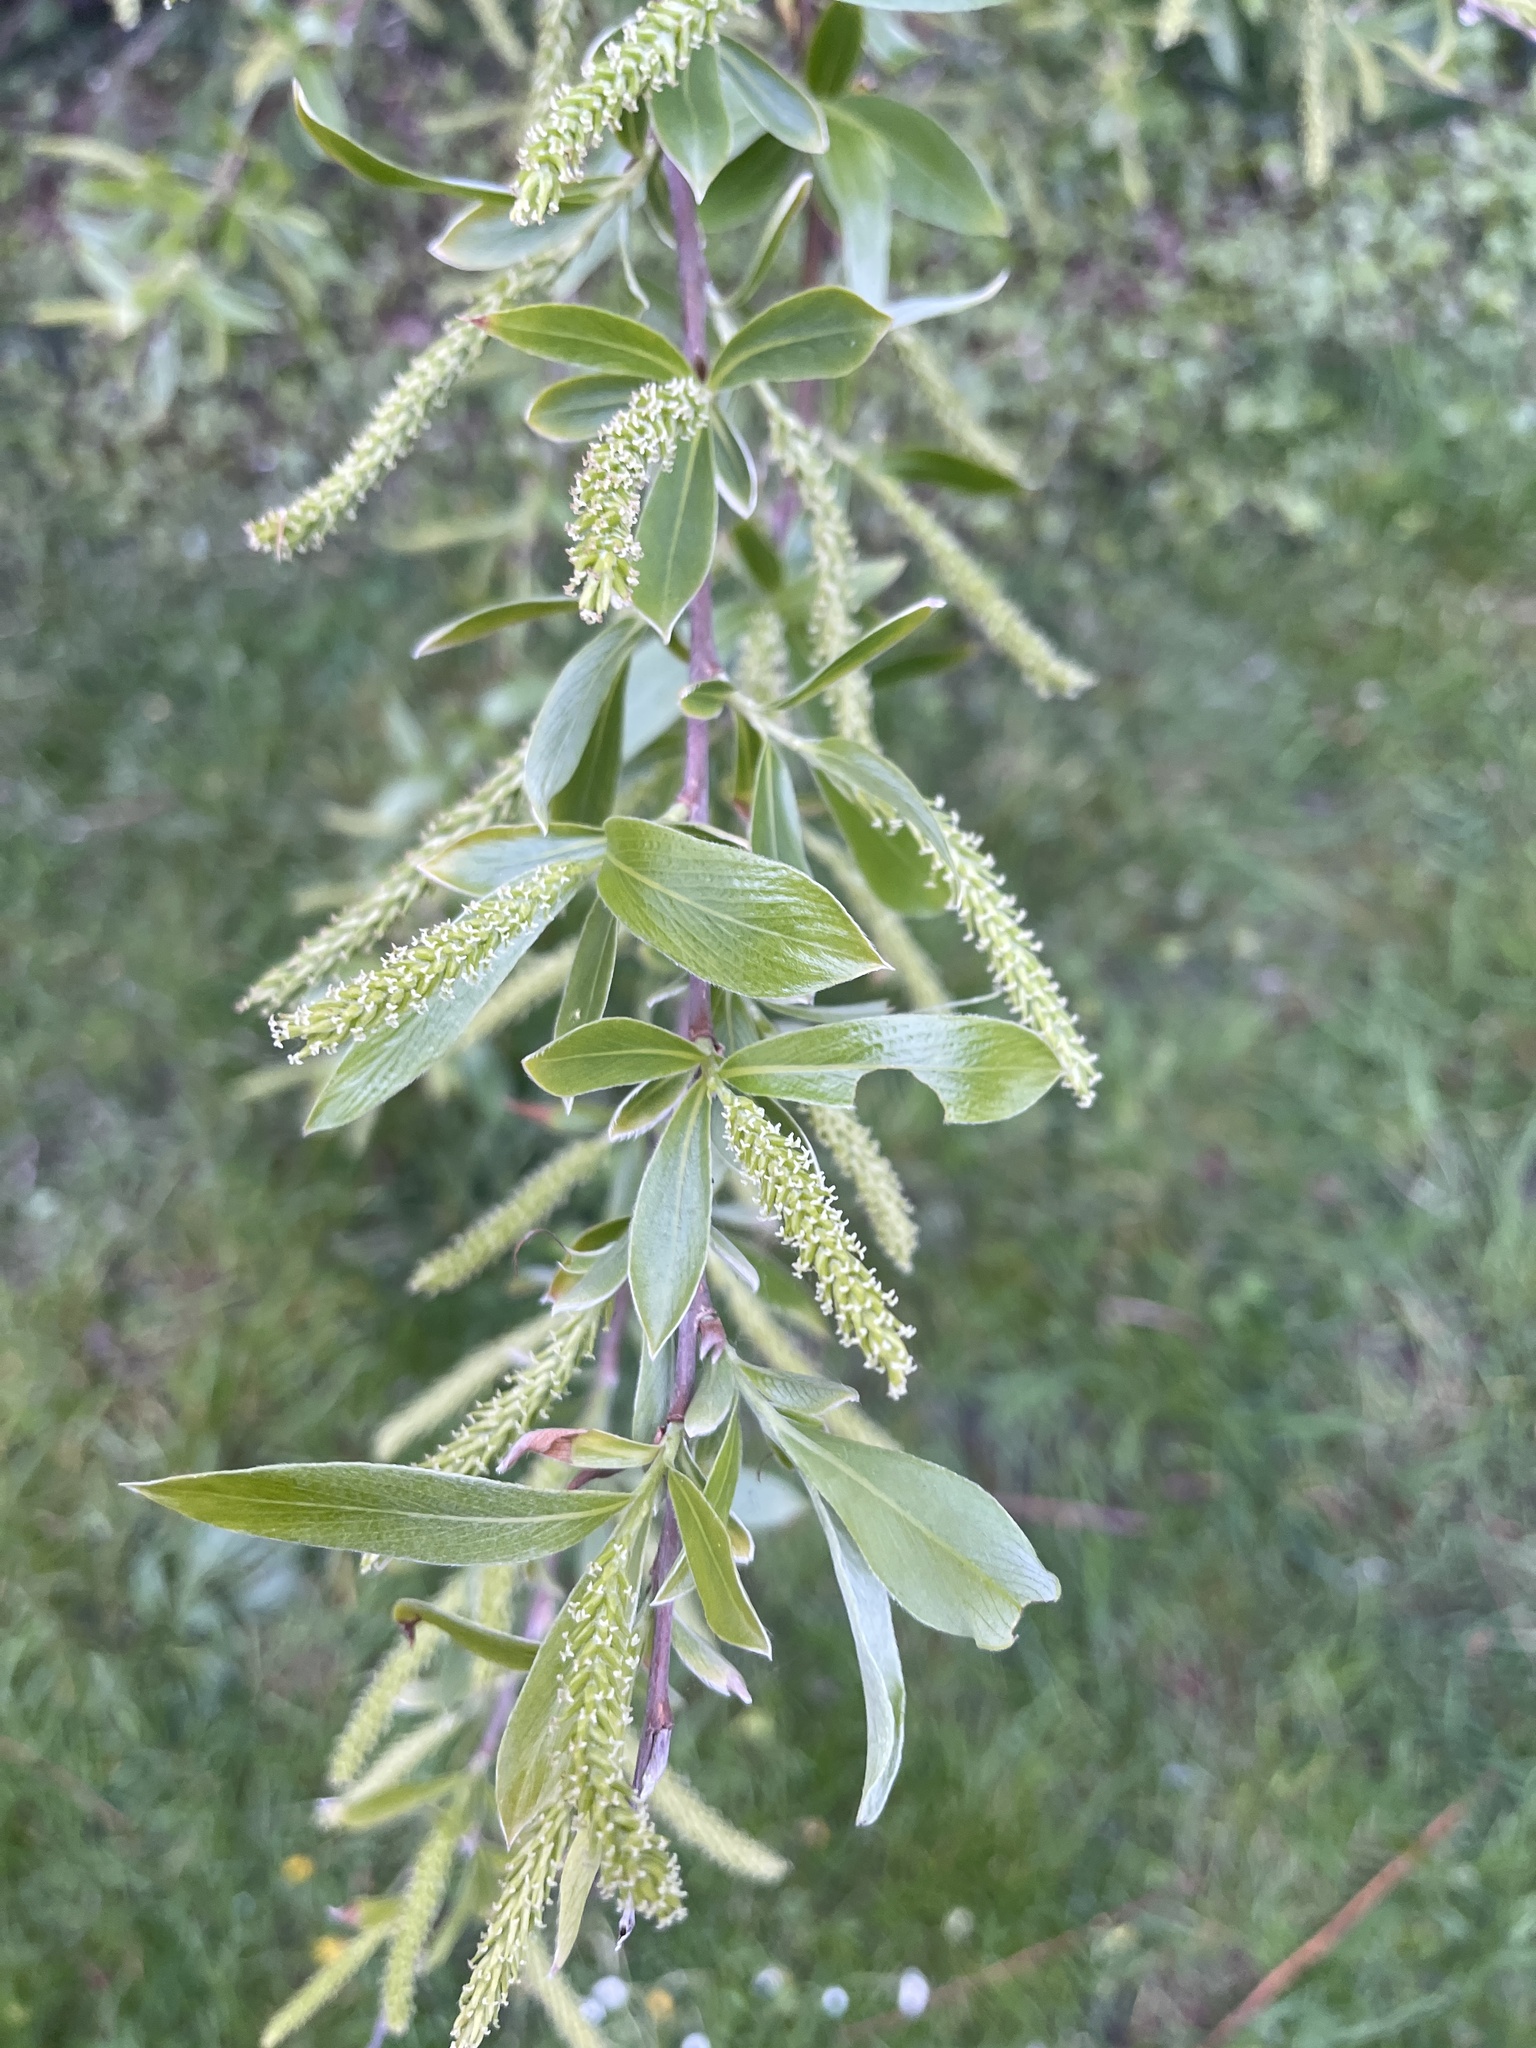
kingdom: Plantae
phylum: Tracheophyta
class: Magnoliopsida
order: Malpighiales
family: Salicaceae
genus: Salix
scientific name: Salix alba
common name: White willow
